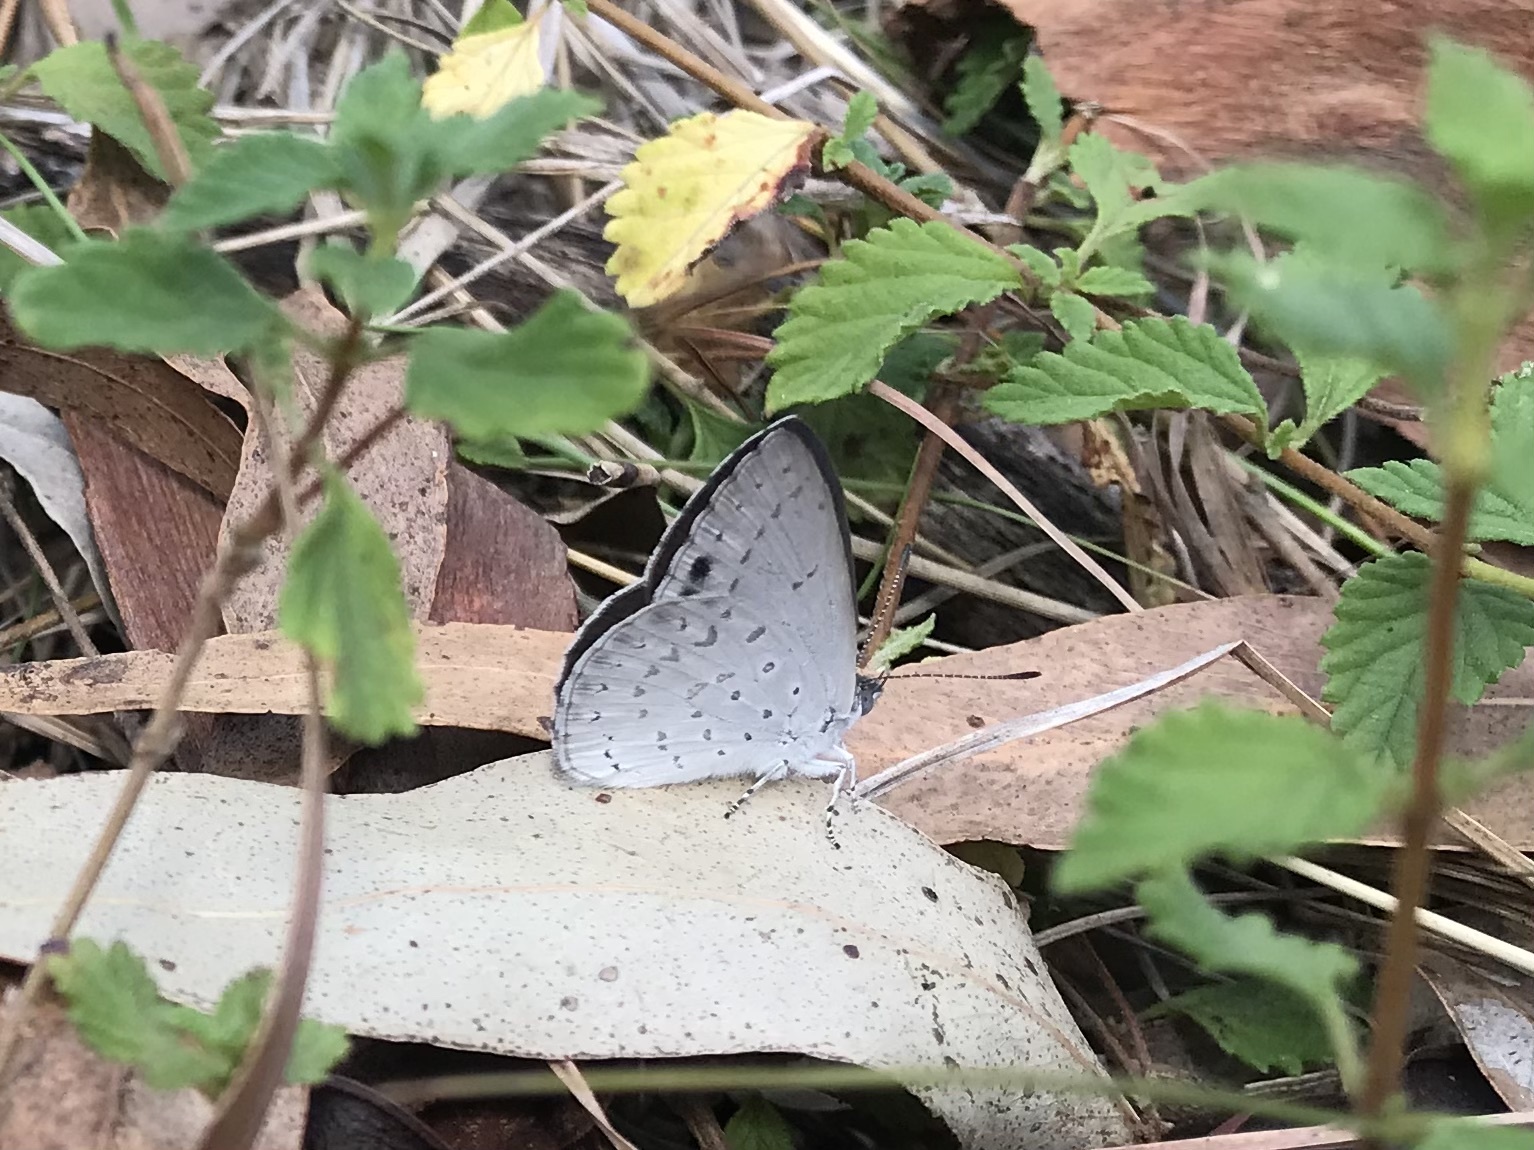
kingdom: Animalia
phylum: Arthropoda
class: Insecta
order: Lepidoptera
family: Lycaenidae
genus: Candalides
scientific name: Candalides
